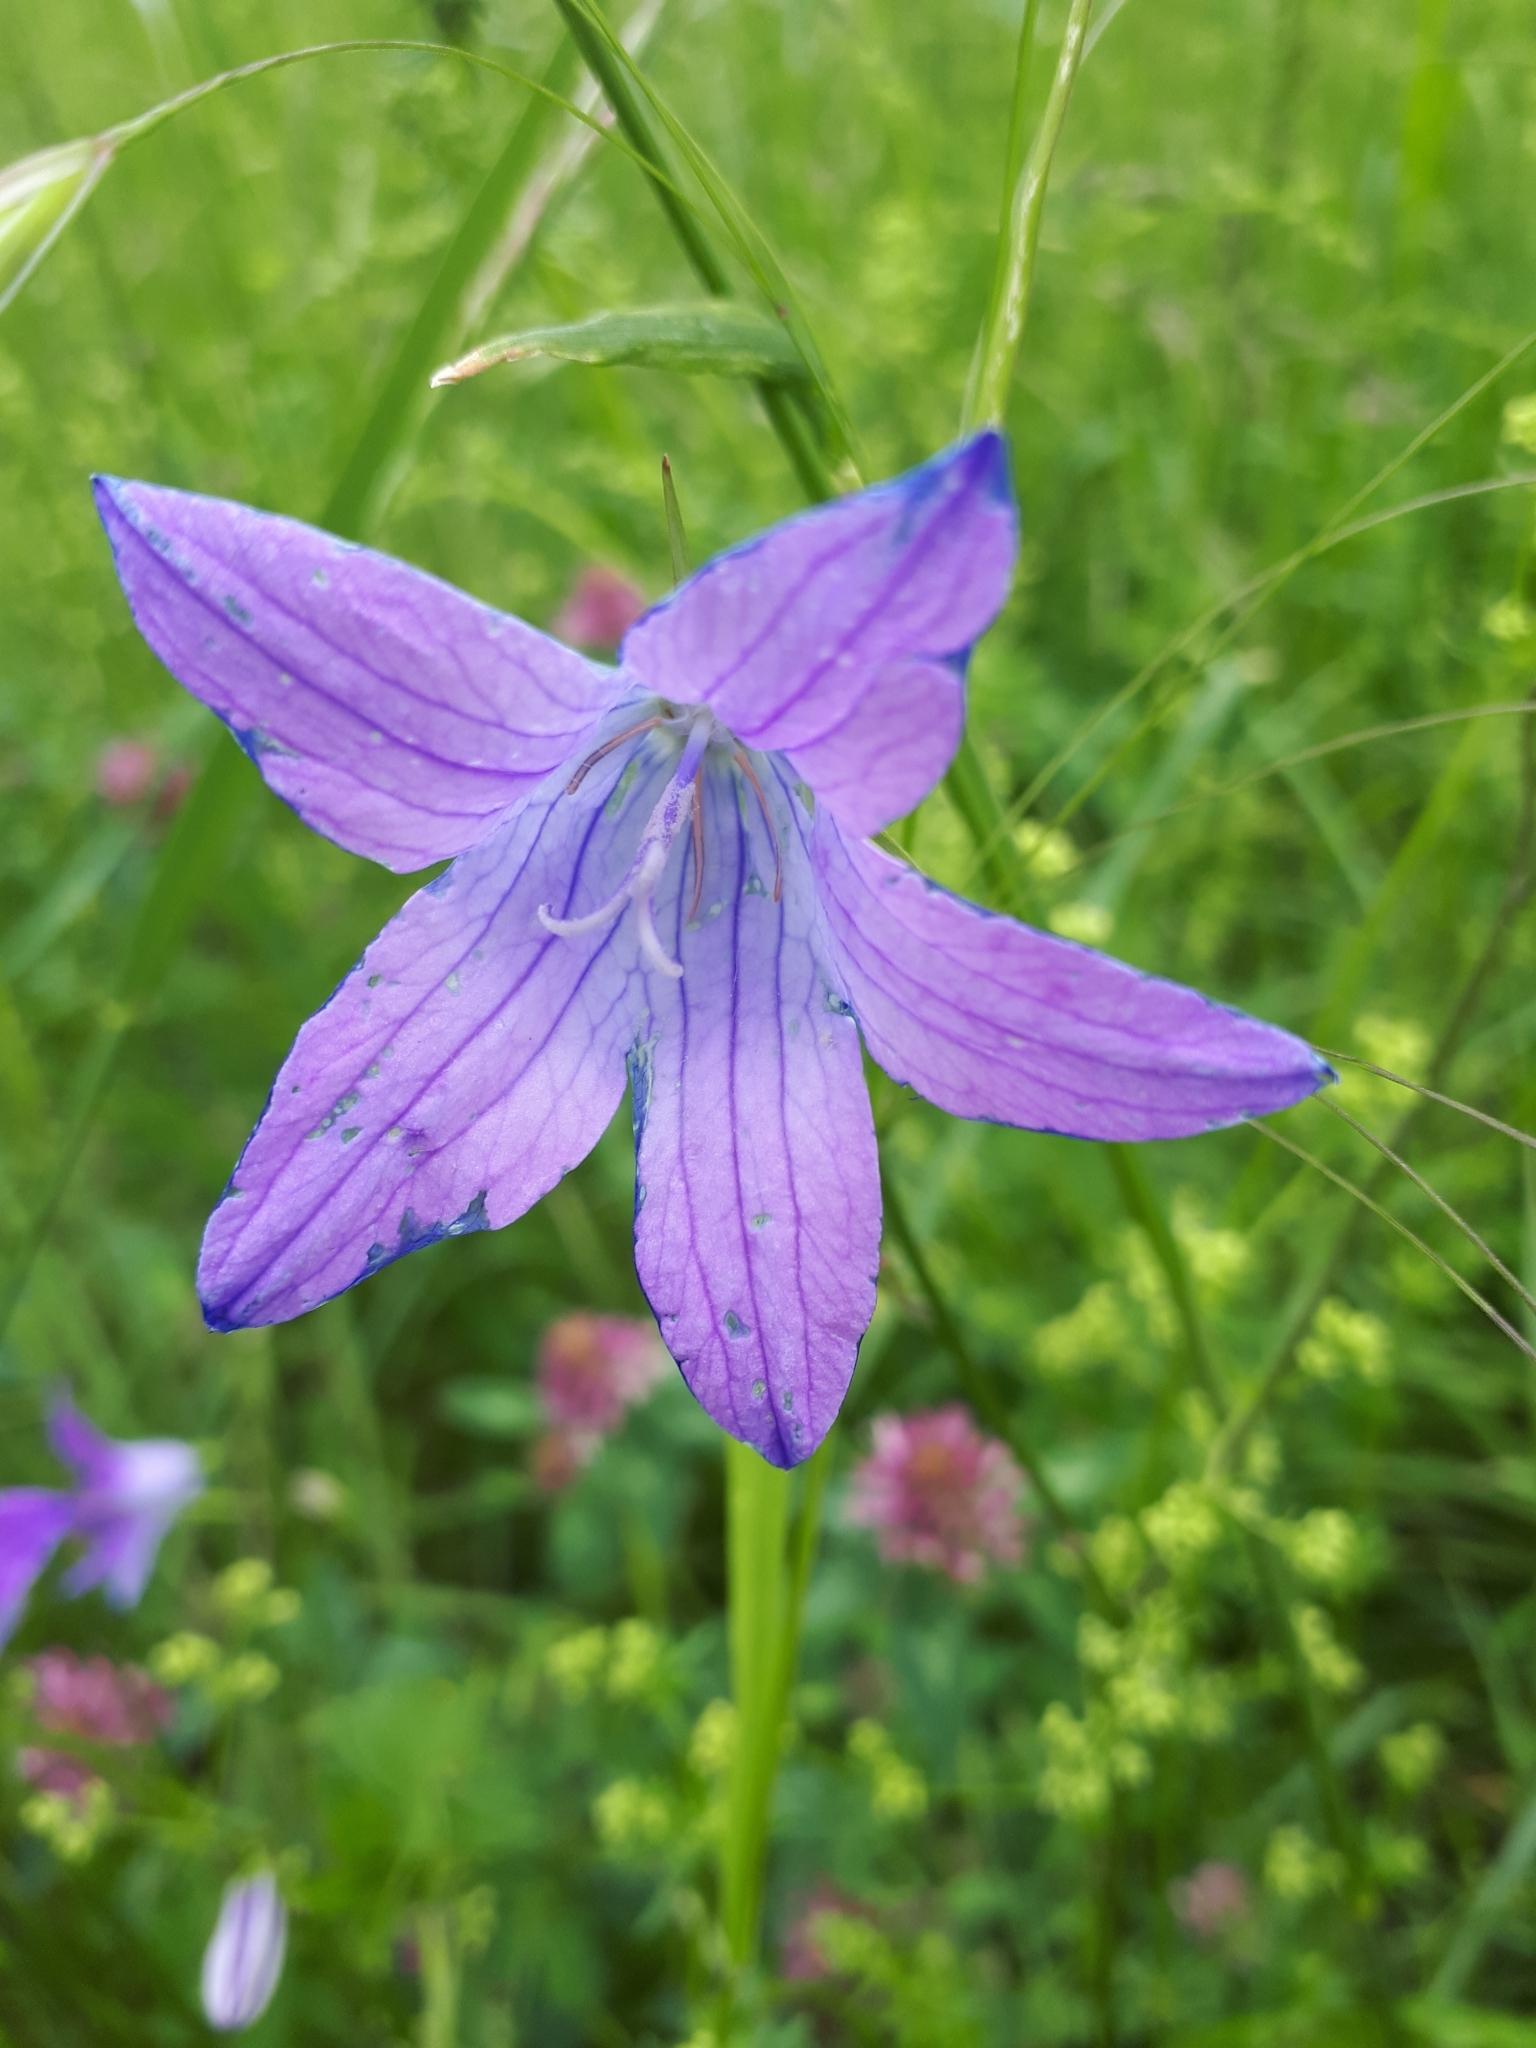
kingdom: Plantae
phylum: Tracheophyta
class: Magnoliopsida
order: Asterales
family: Campanulaceae
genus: Campanula
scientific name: Campanula patula
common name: Spreading bellflower
